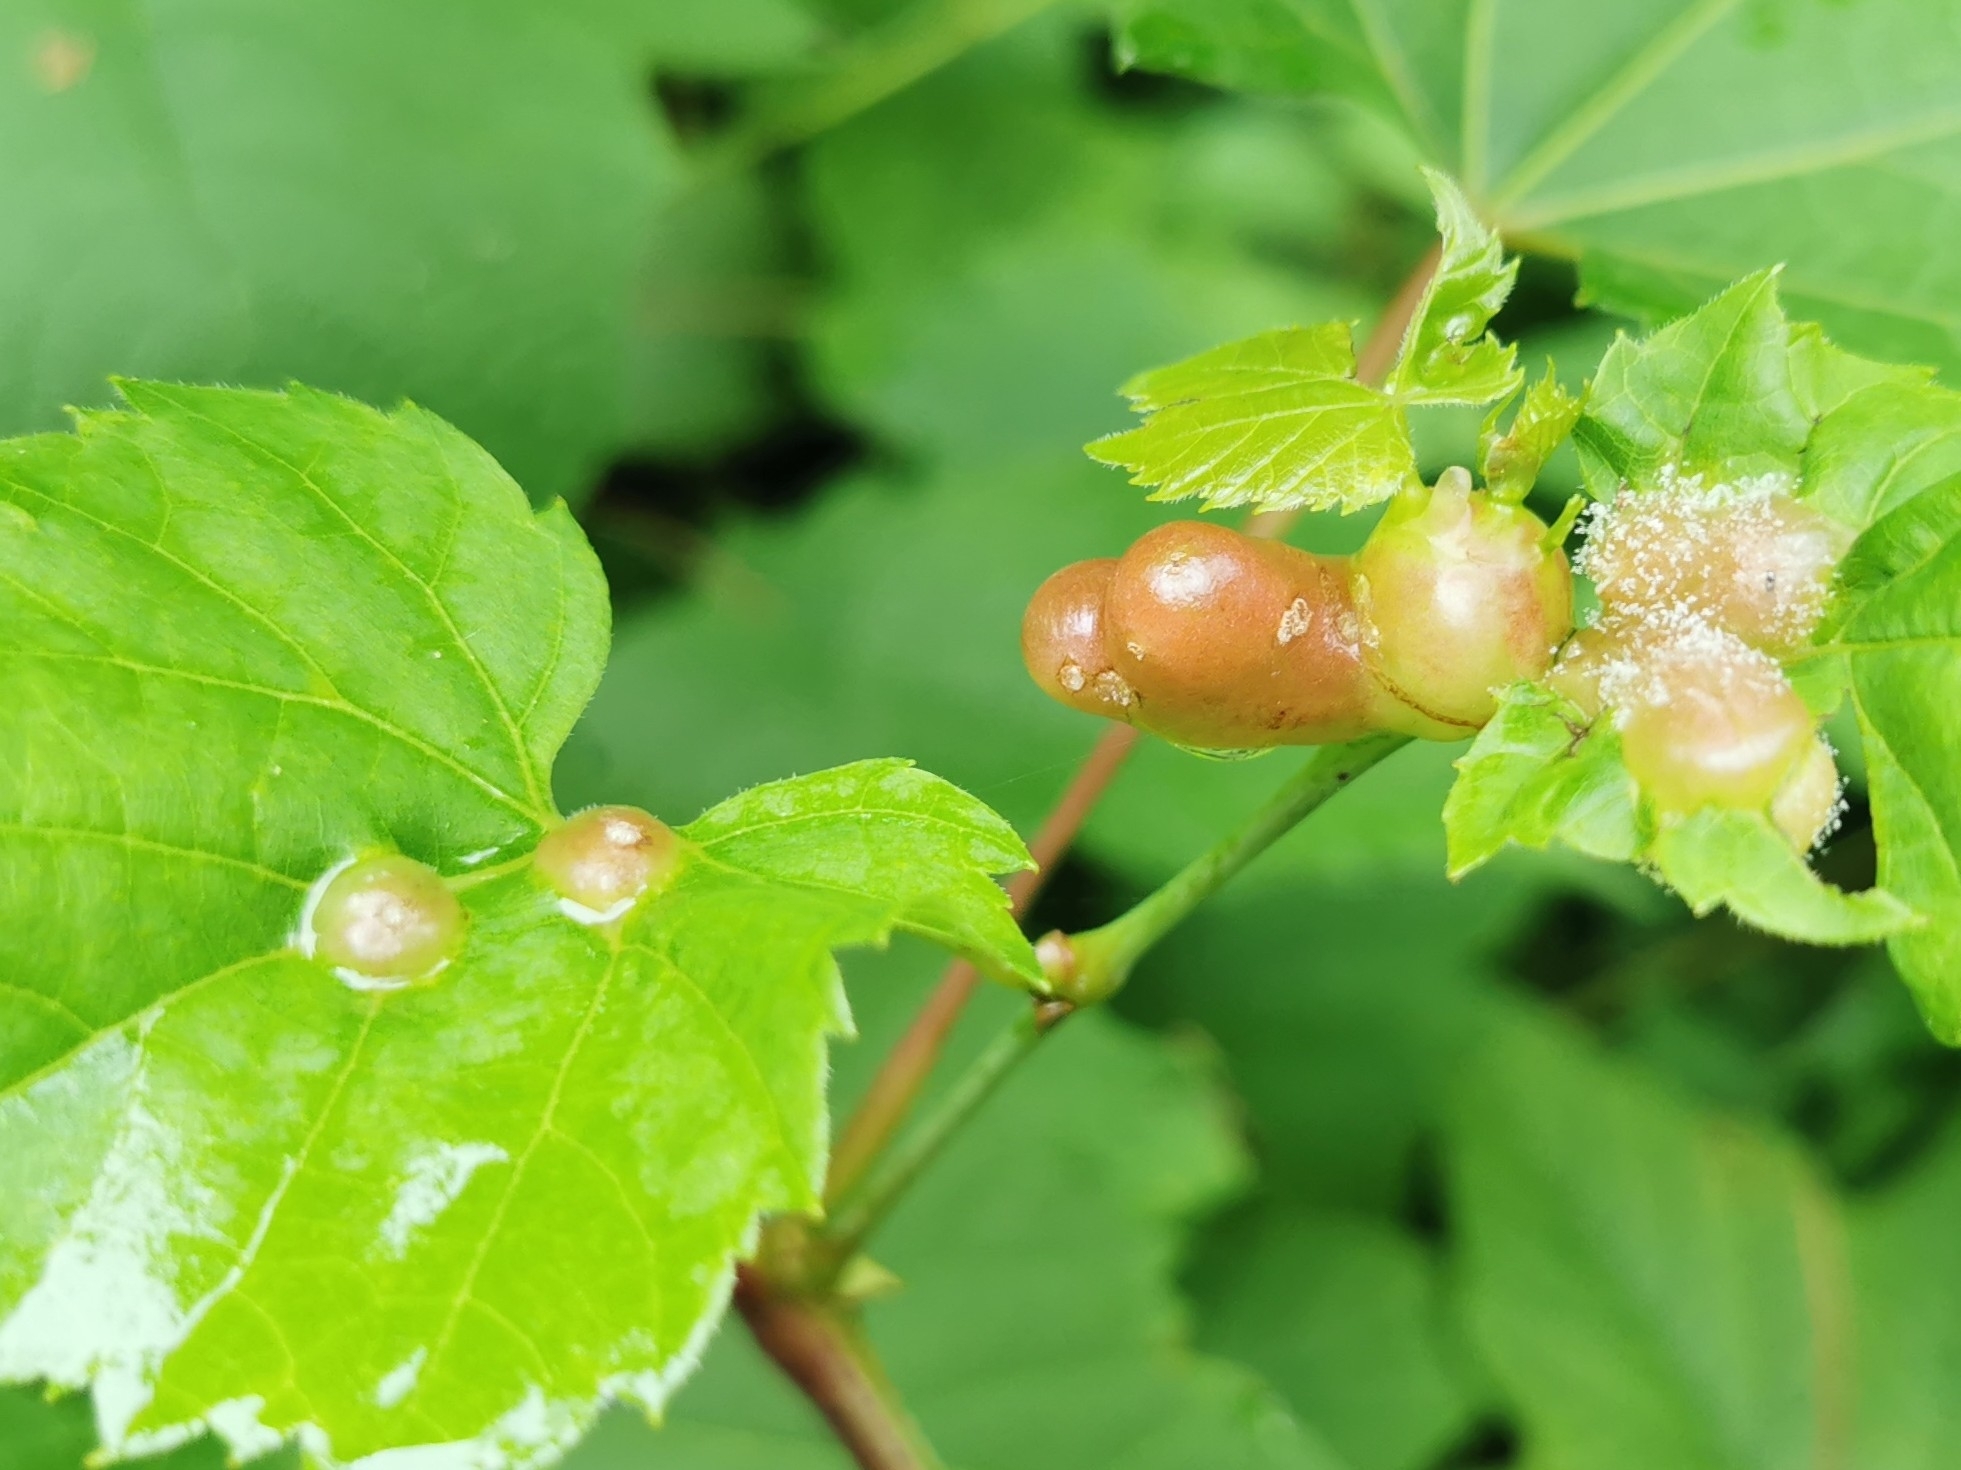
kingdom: Animalia
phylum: Arthropoda
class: Insecta
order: Diptera
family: Cecidomyiidae
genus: Vitisiella
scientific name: Vitisiella brevicauda
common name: Grape tumid gallmaker midge
